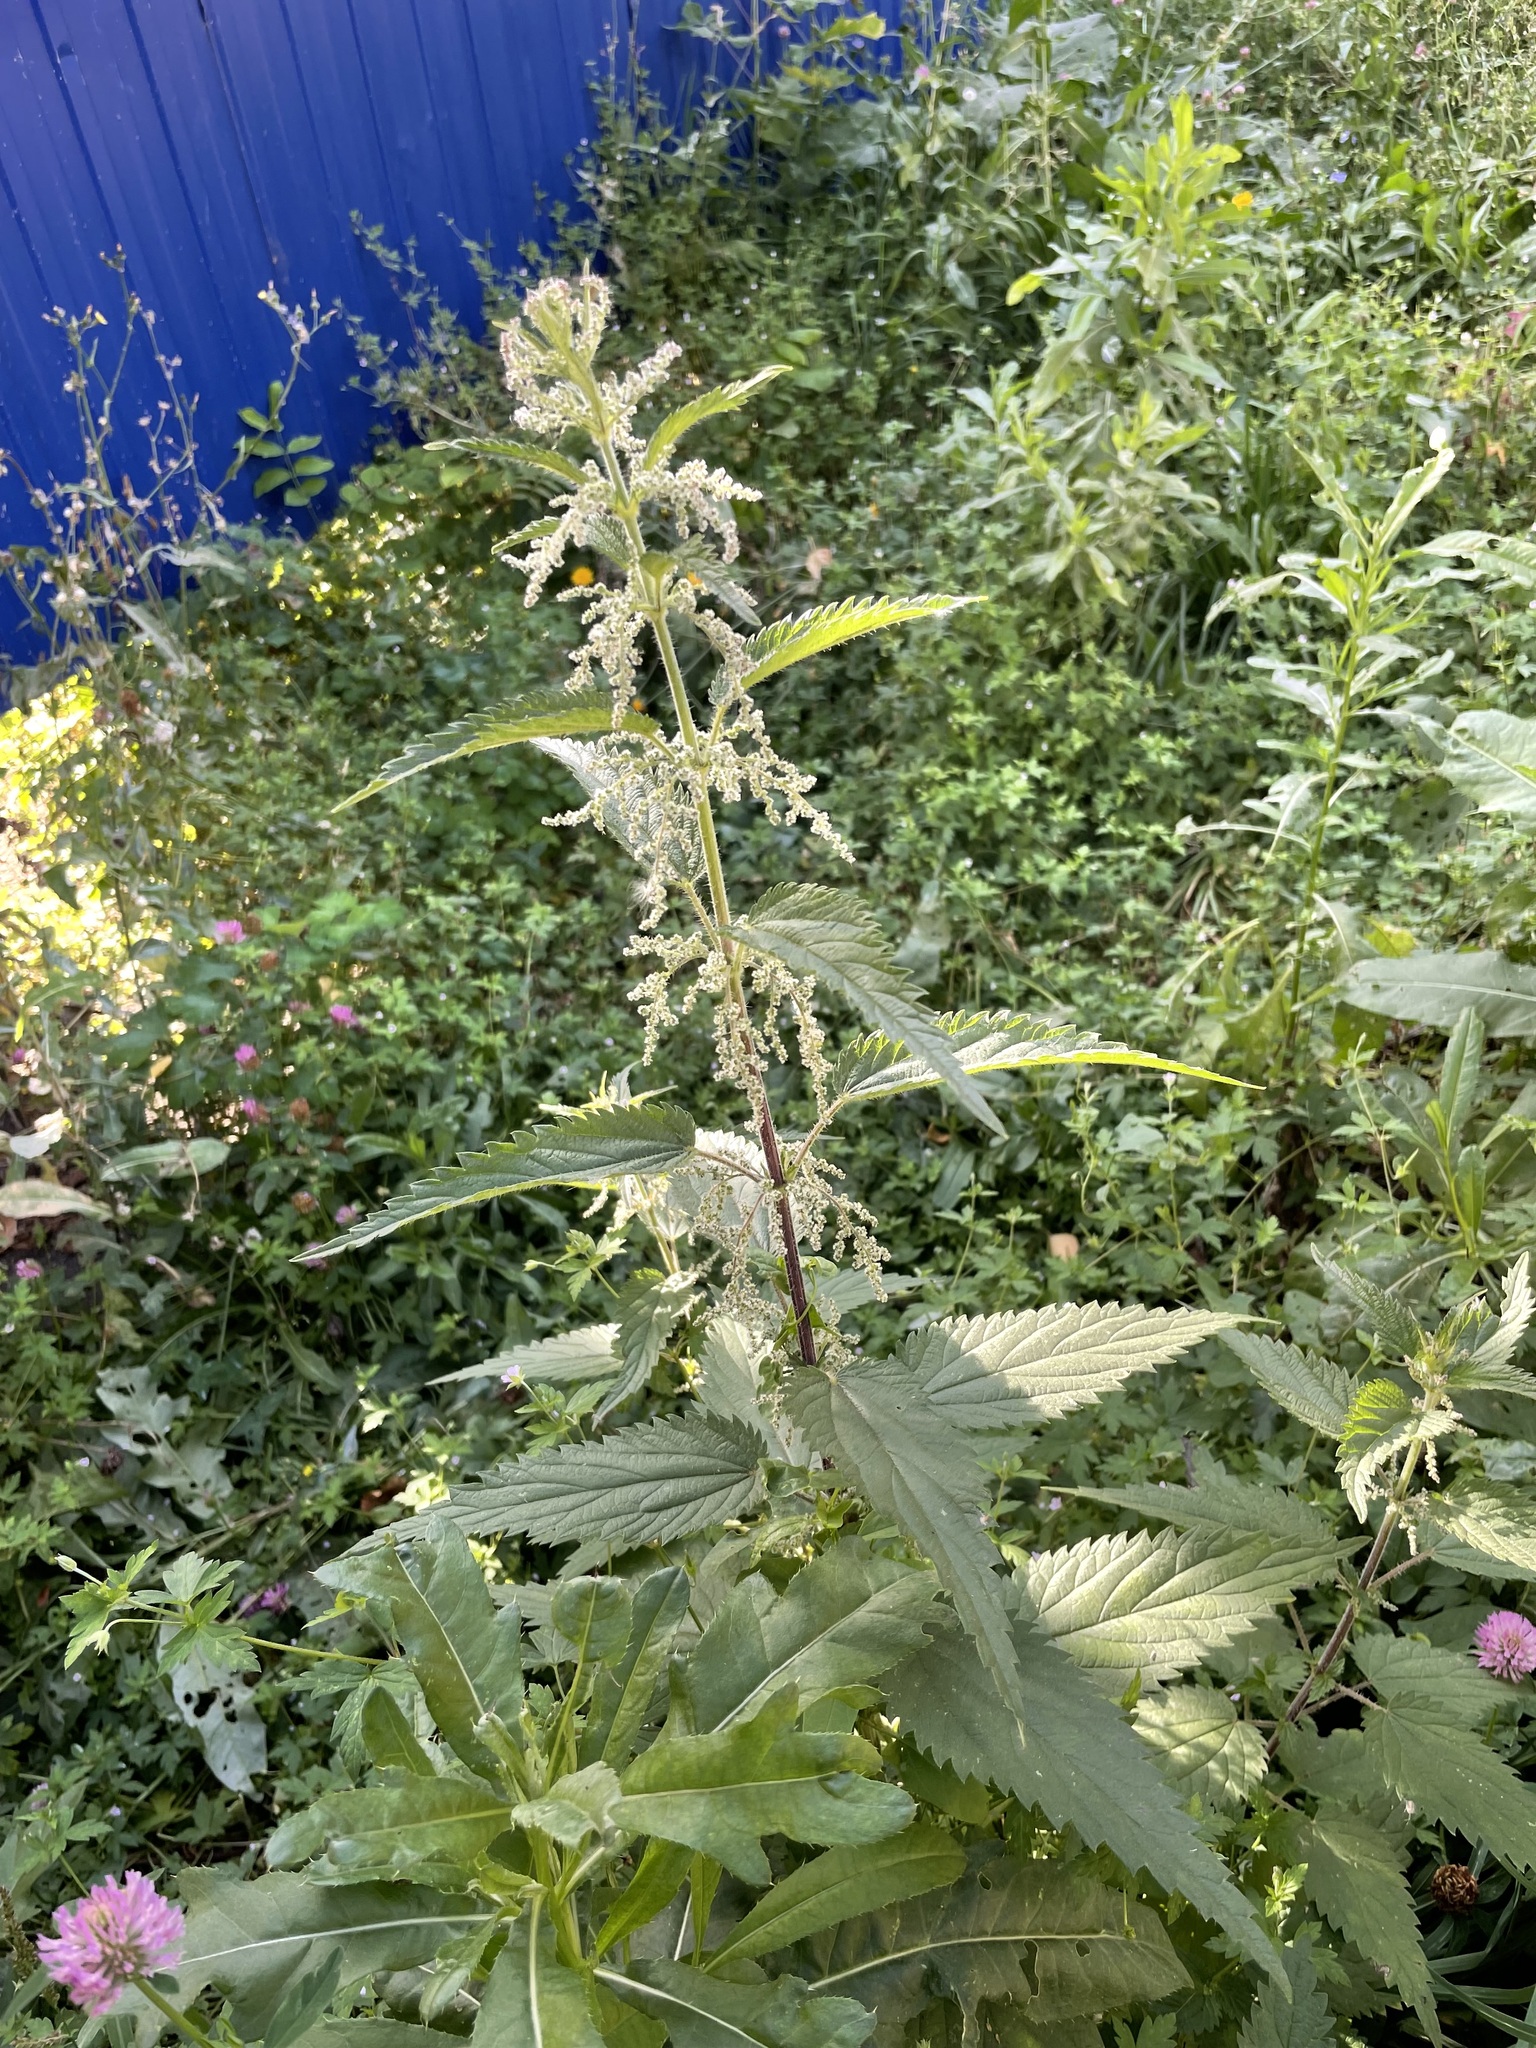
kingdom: Plantae
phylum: Tracheophyta
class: Magnoliopsida
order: Rosales
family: Urticaceae
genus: Urtica
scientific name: Urtica dioica
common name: Common nettle
